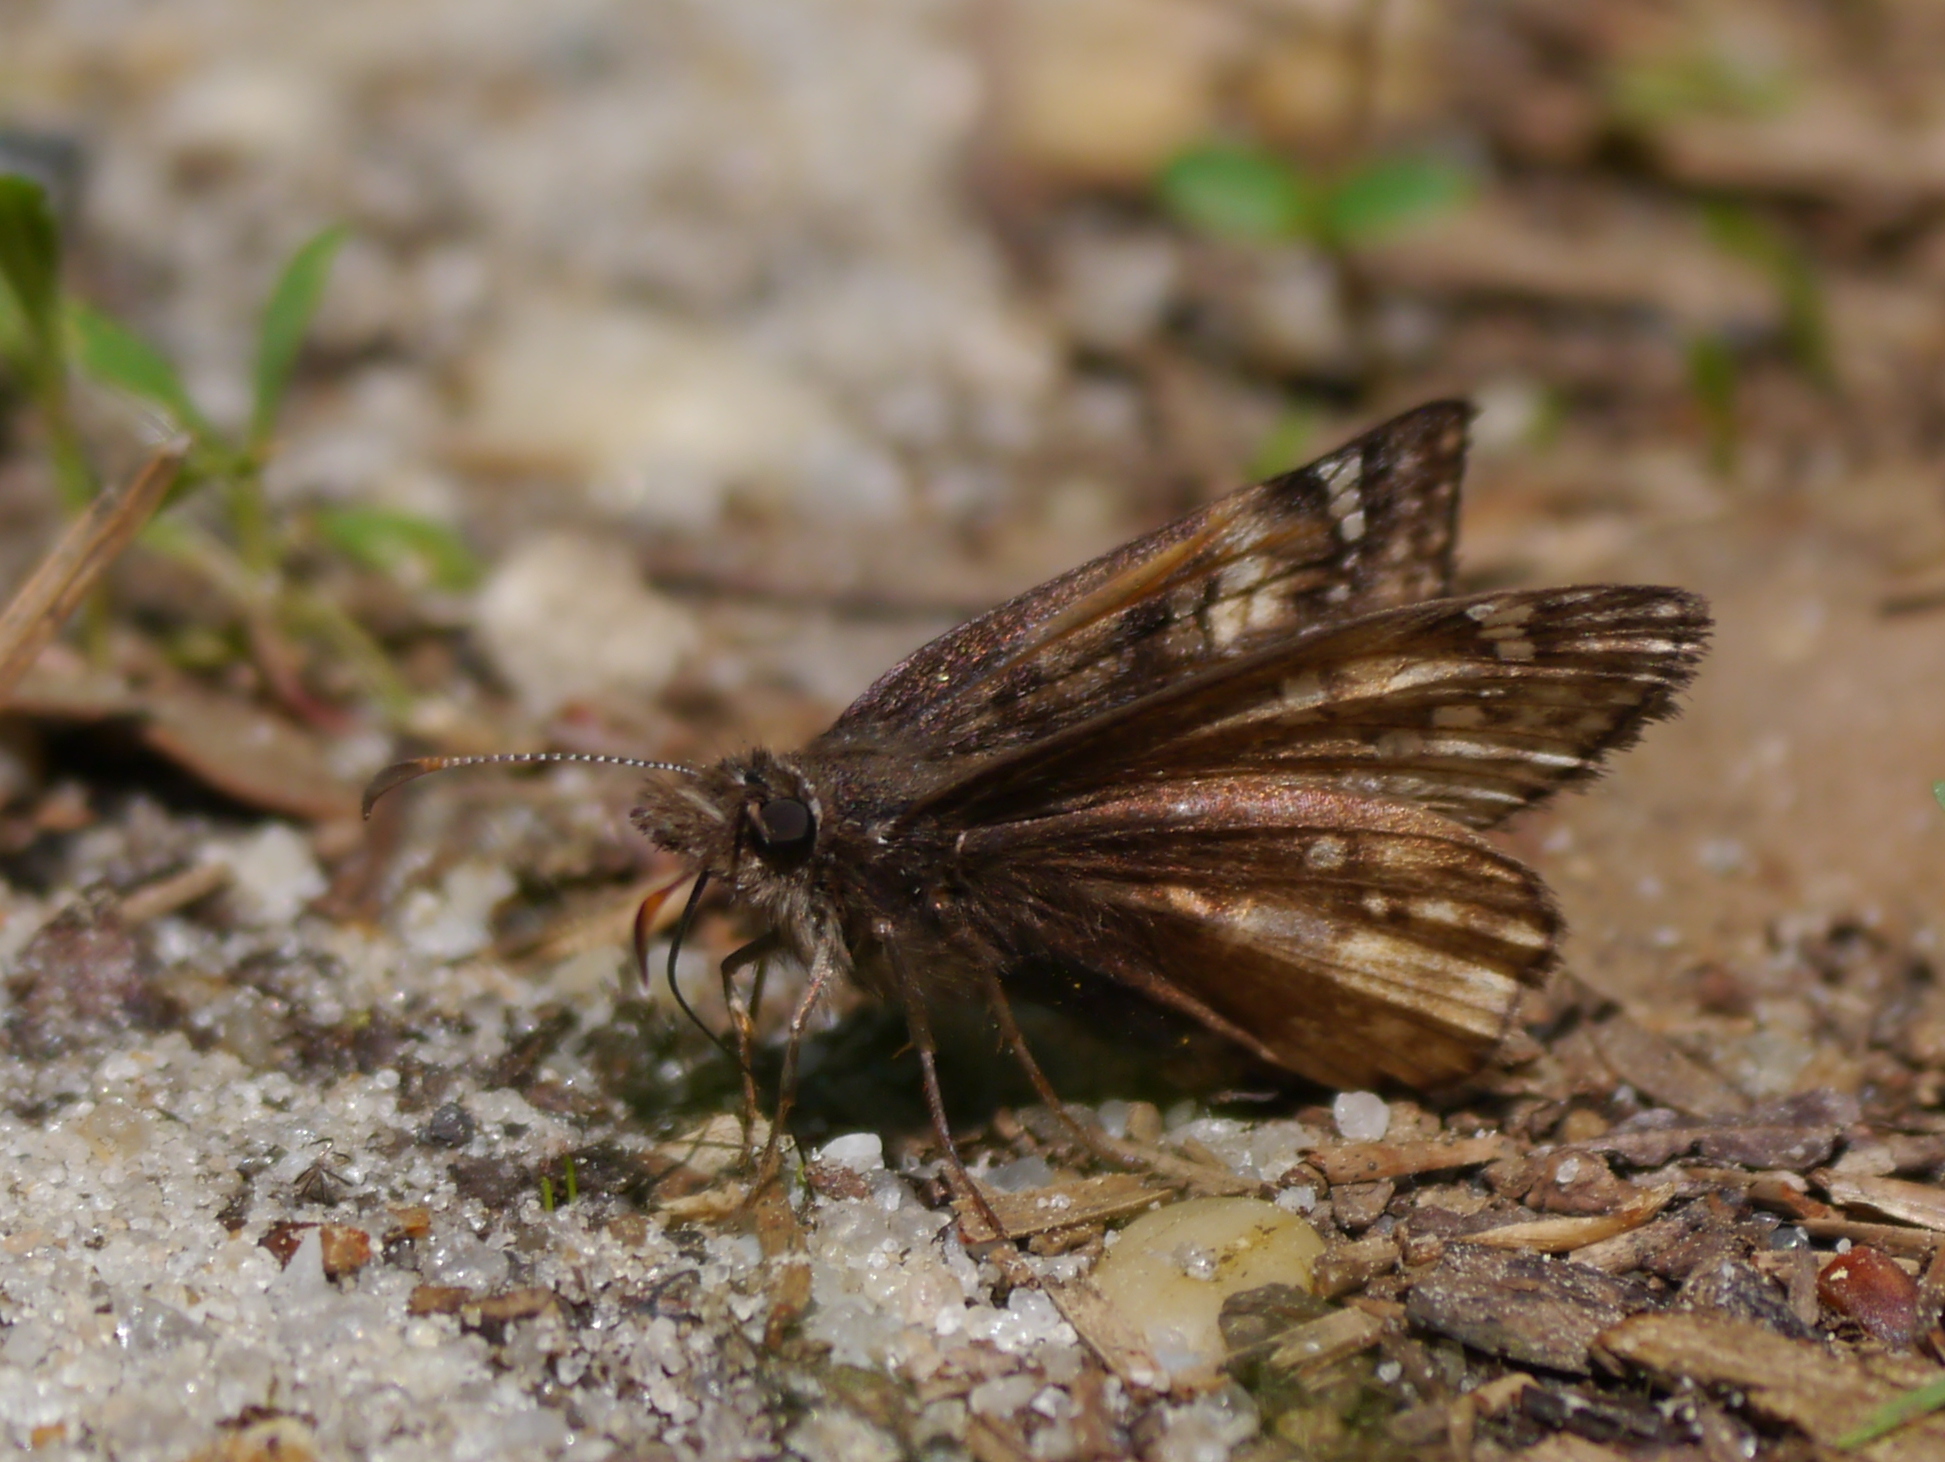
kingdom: Animalia
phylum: Arthropoda
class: Insecta
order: Lepidoptera
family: Hesperiidae
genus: Erynnis
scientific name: Erynnis juvenalis
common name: Juvenal's duskywing
